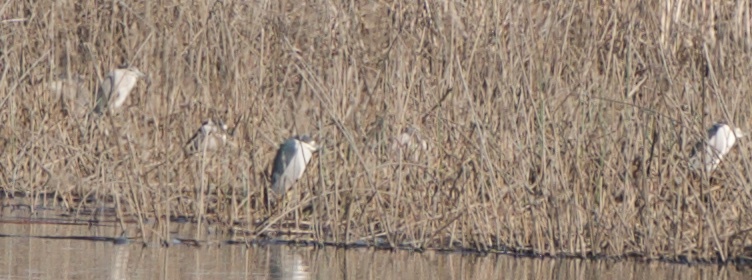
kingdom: Animalia
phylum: Chordata
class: Aves
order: Pelecaniformes
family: Ardeidae
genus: Nycticorax
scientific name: Nycticorax nycticorax
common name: Black-crowned night heron
